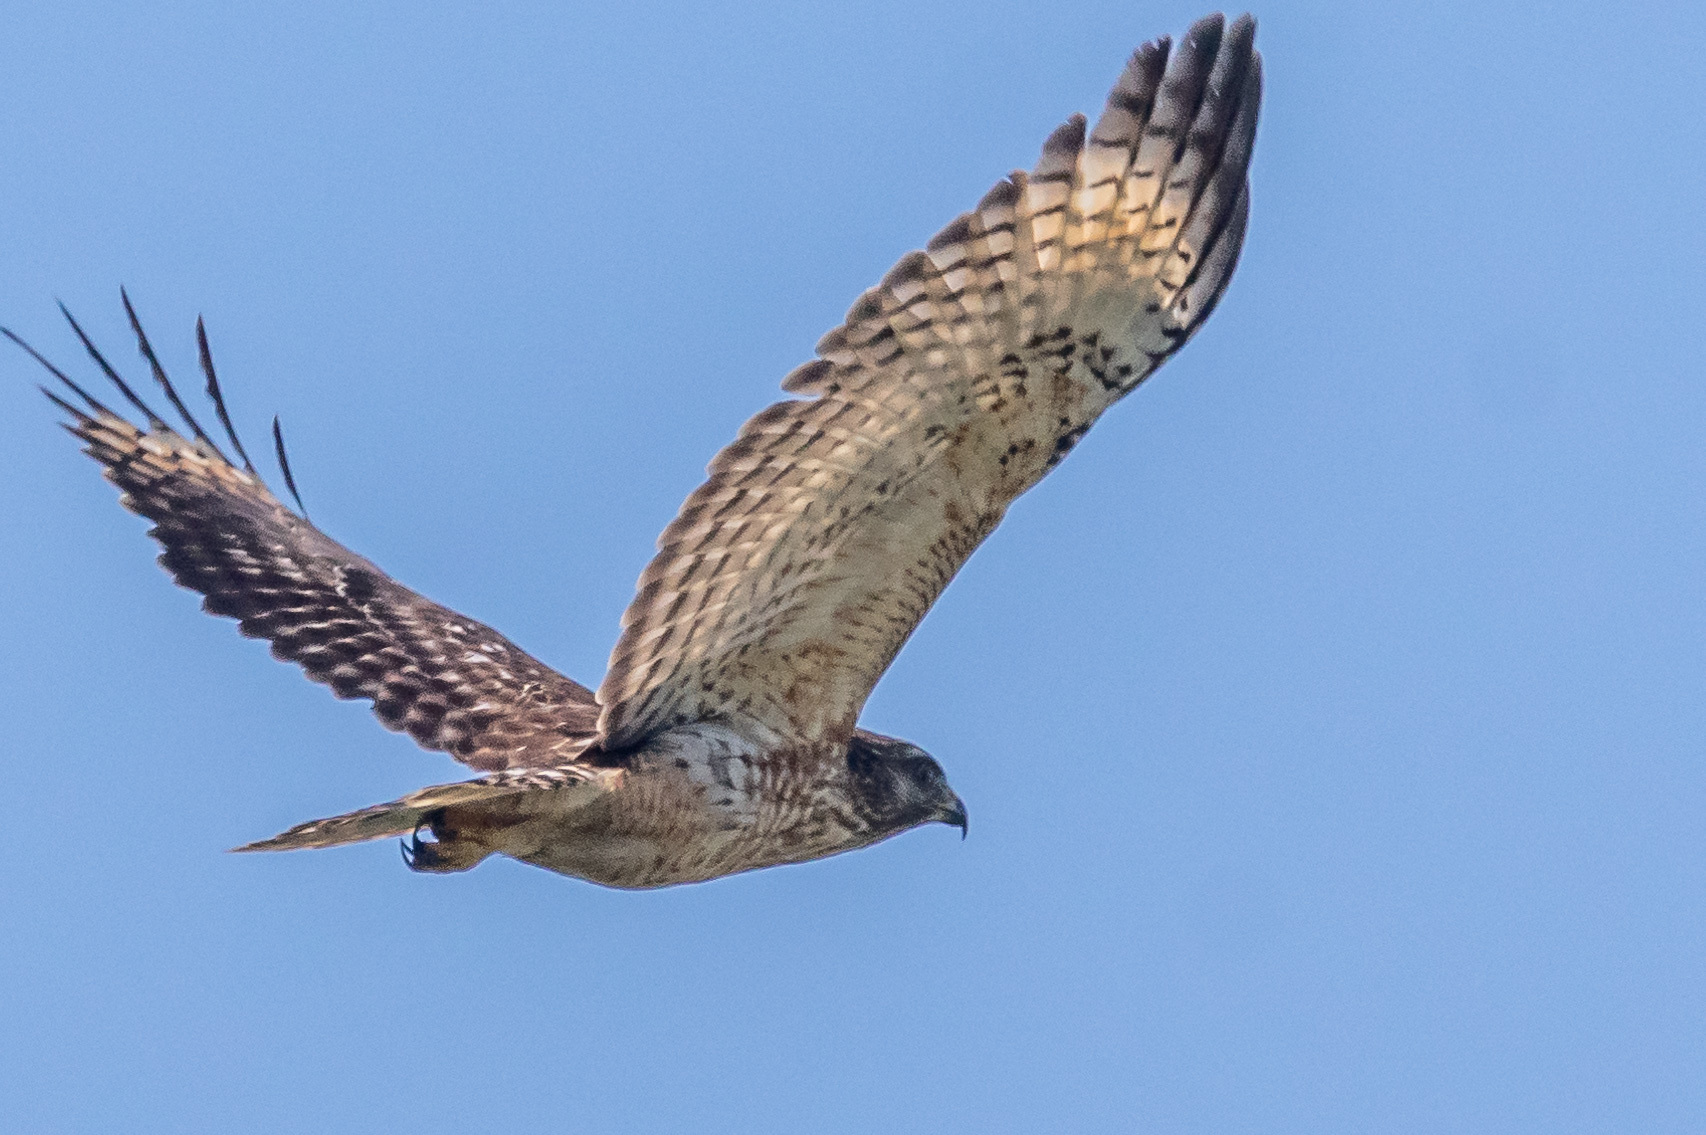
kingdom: Animalia
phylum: Chordata
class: Aves
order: Accipitriformes
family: Accipitridae
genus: Buteo
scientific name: Buteo lineatus
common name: Red-shouldered hawk
